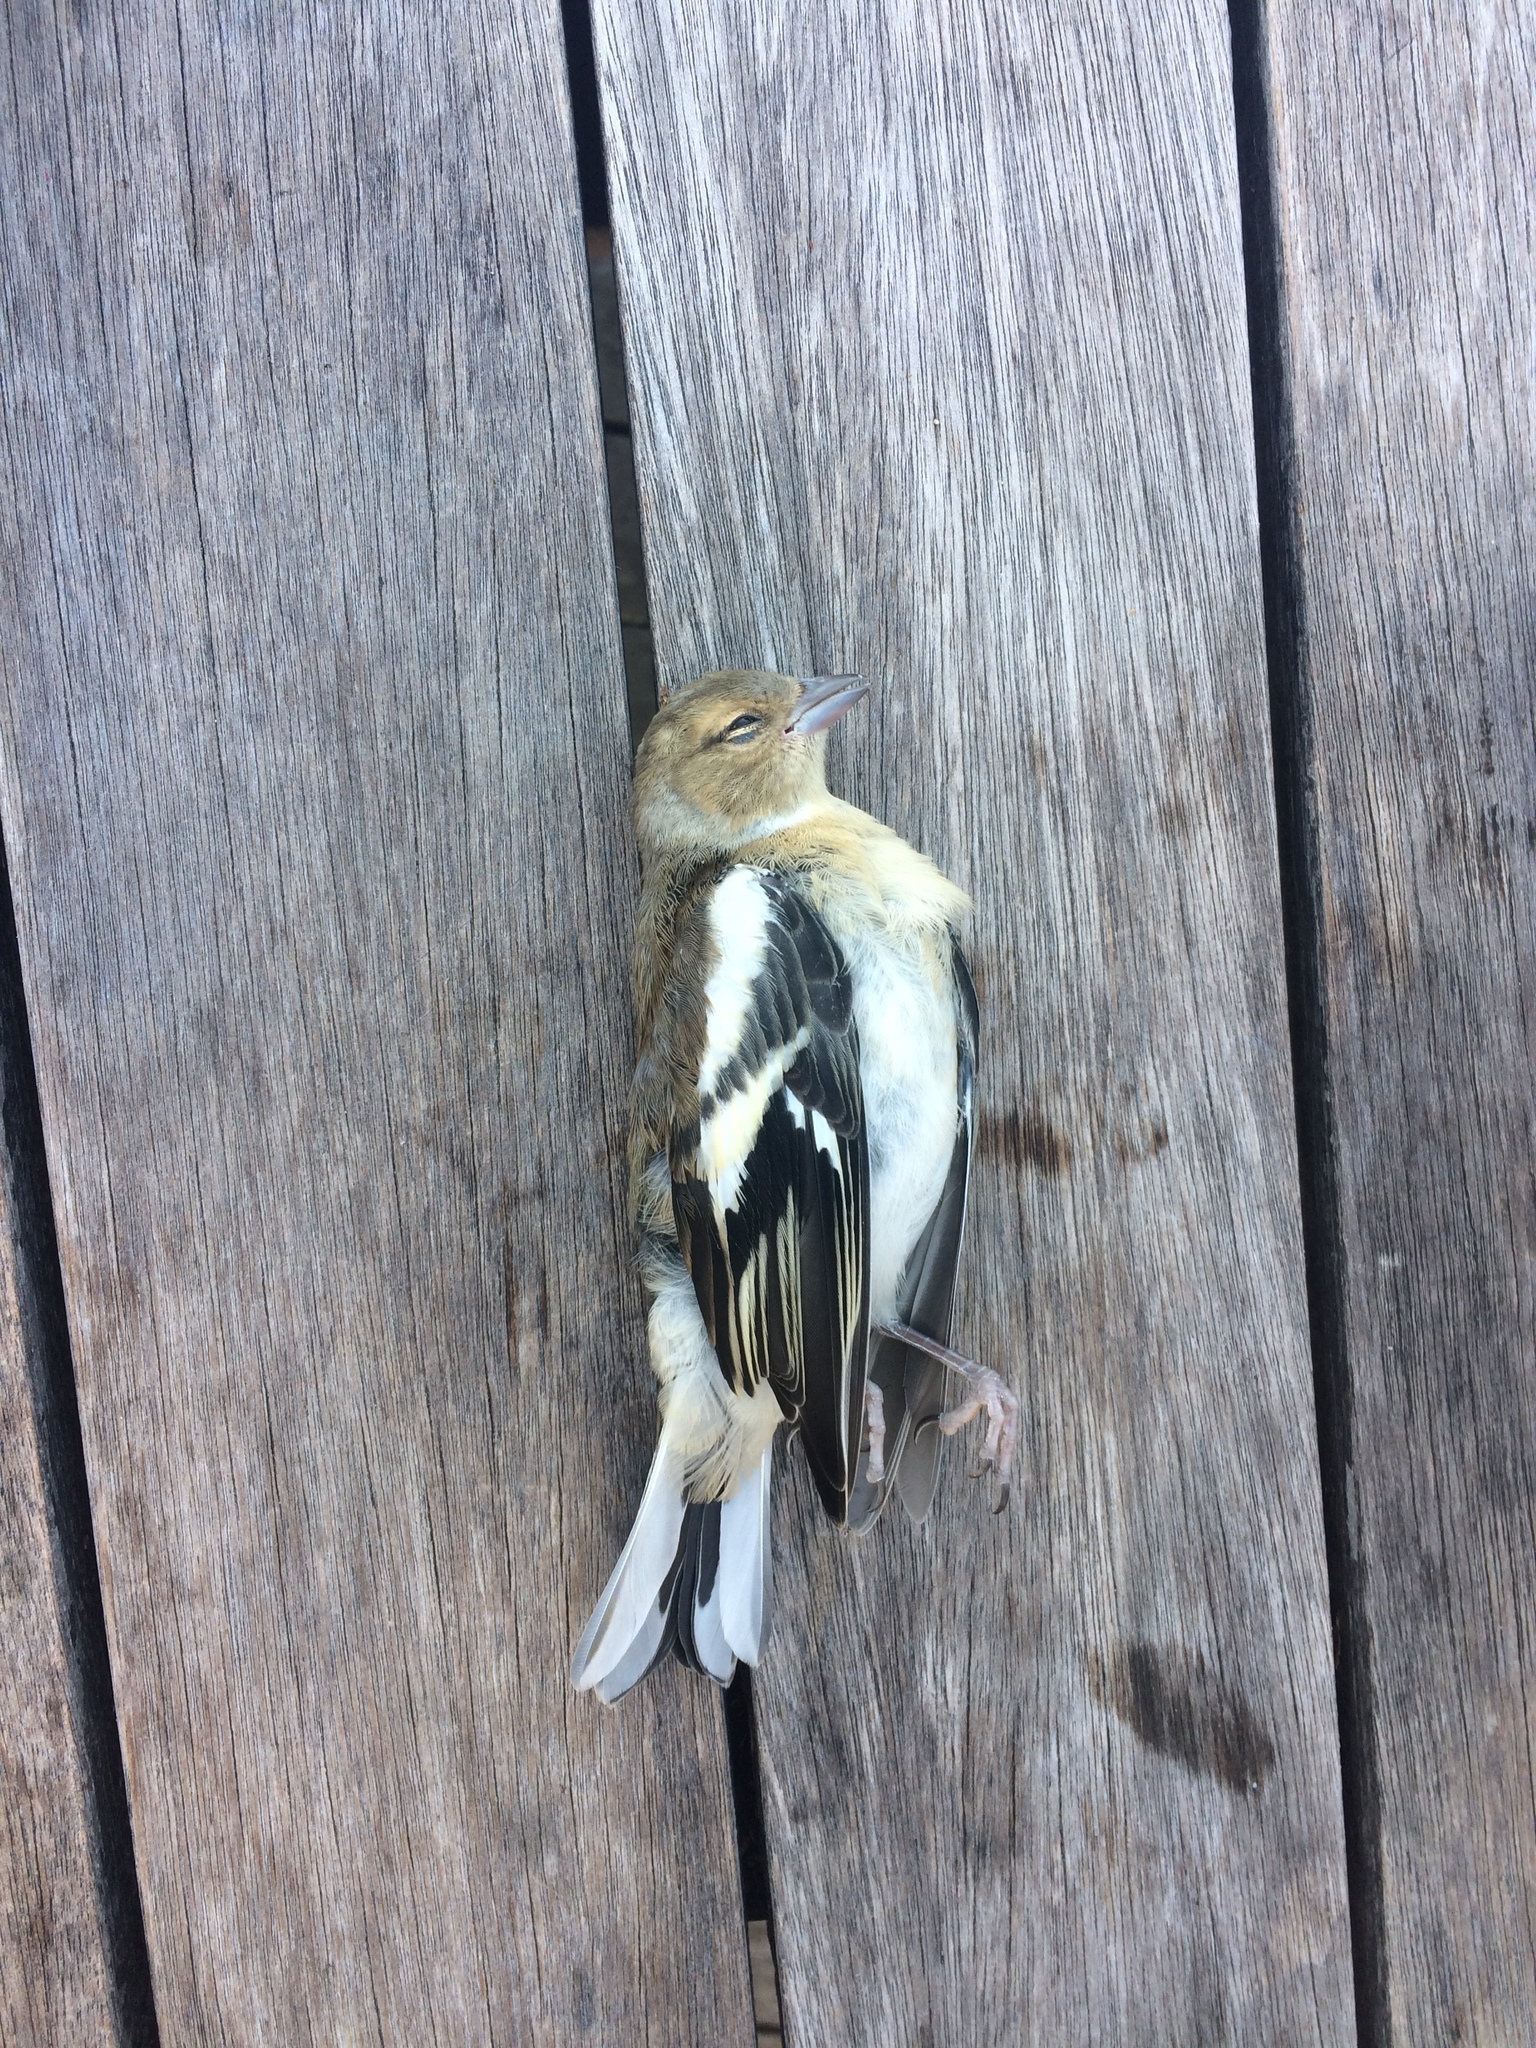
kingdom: Animalia
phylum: Chordata
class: Aves
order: Passeriformes
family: Fringillidae
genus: Fringilla
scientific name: Fringilla coelebs
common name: Common chaffinch
